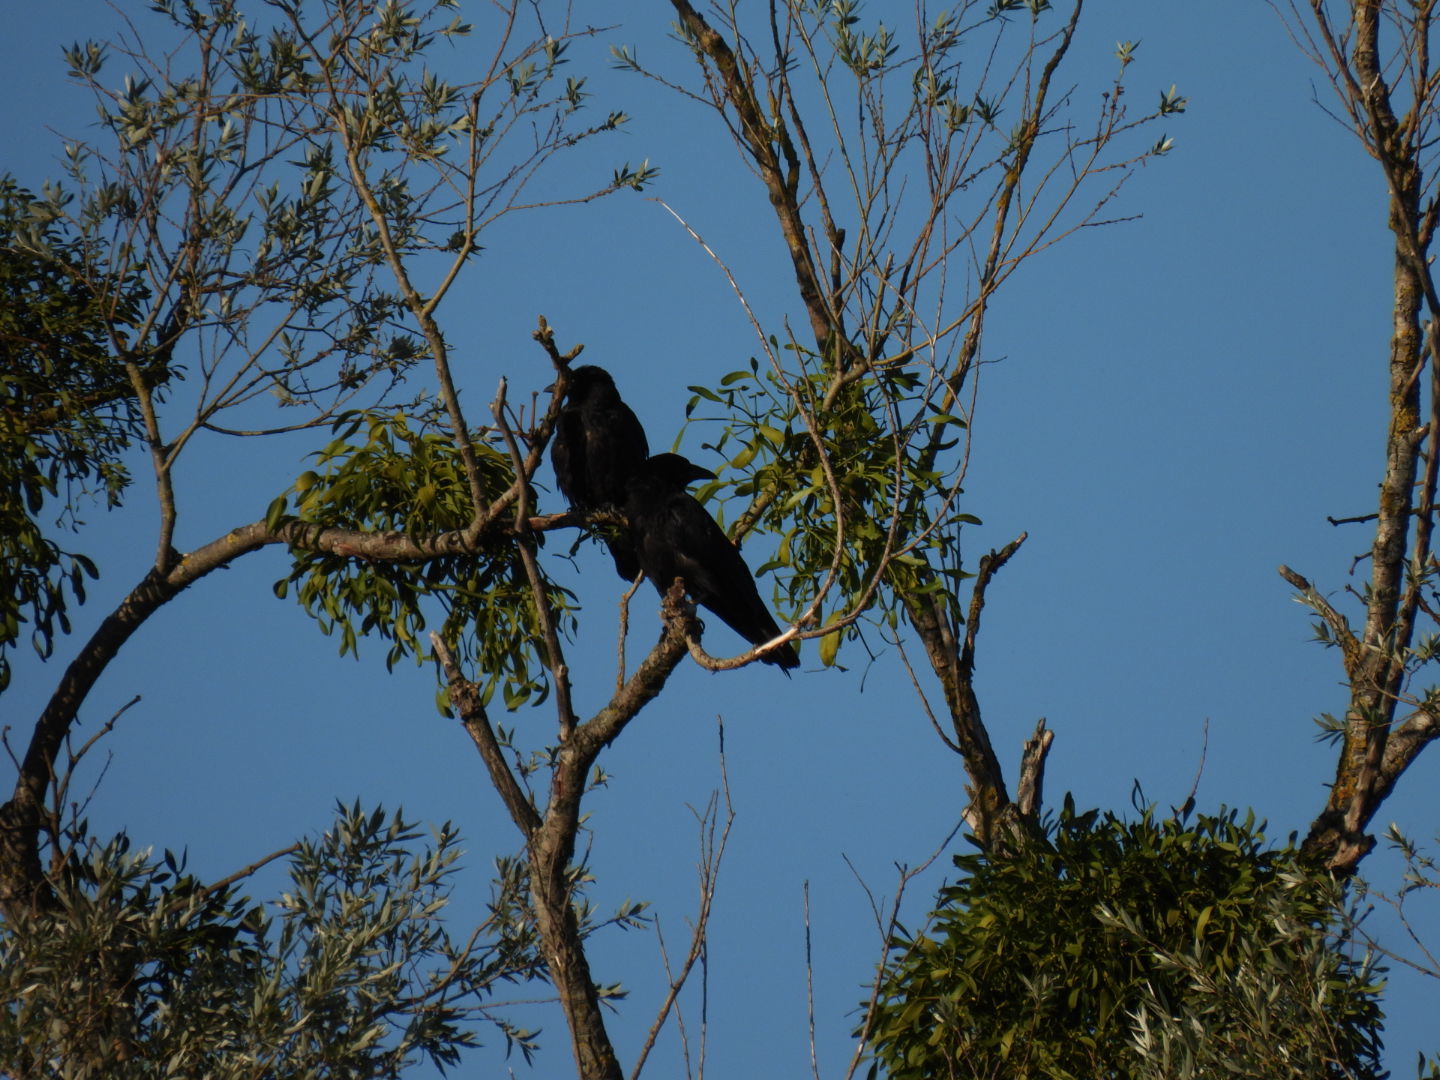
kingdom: Animalia
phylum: Chordata
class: Aves
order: Passeriformes
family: Corvidae
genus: Corvus
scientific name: Corvus corone
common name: Carrion crow
